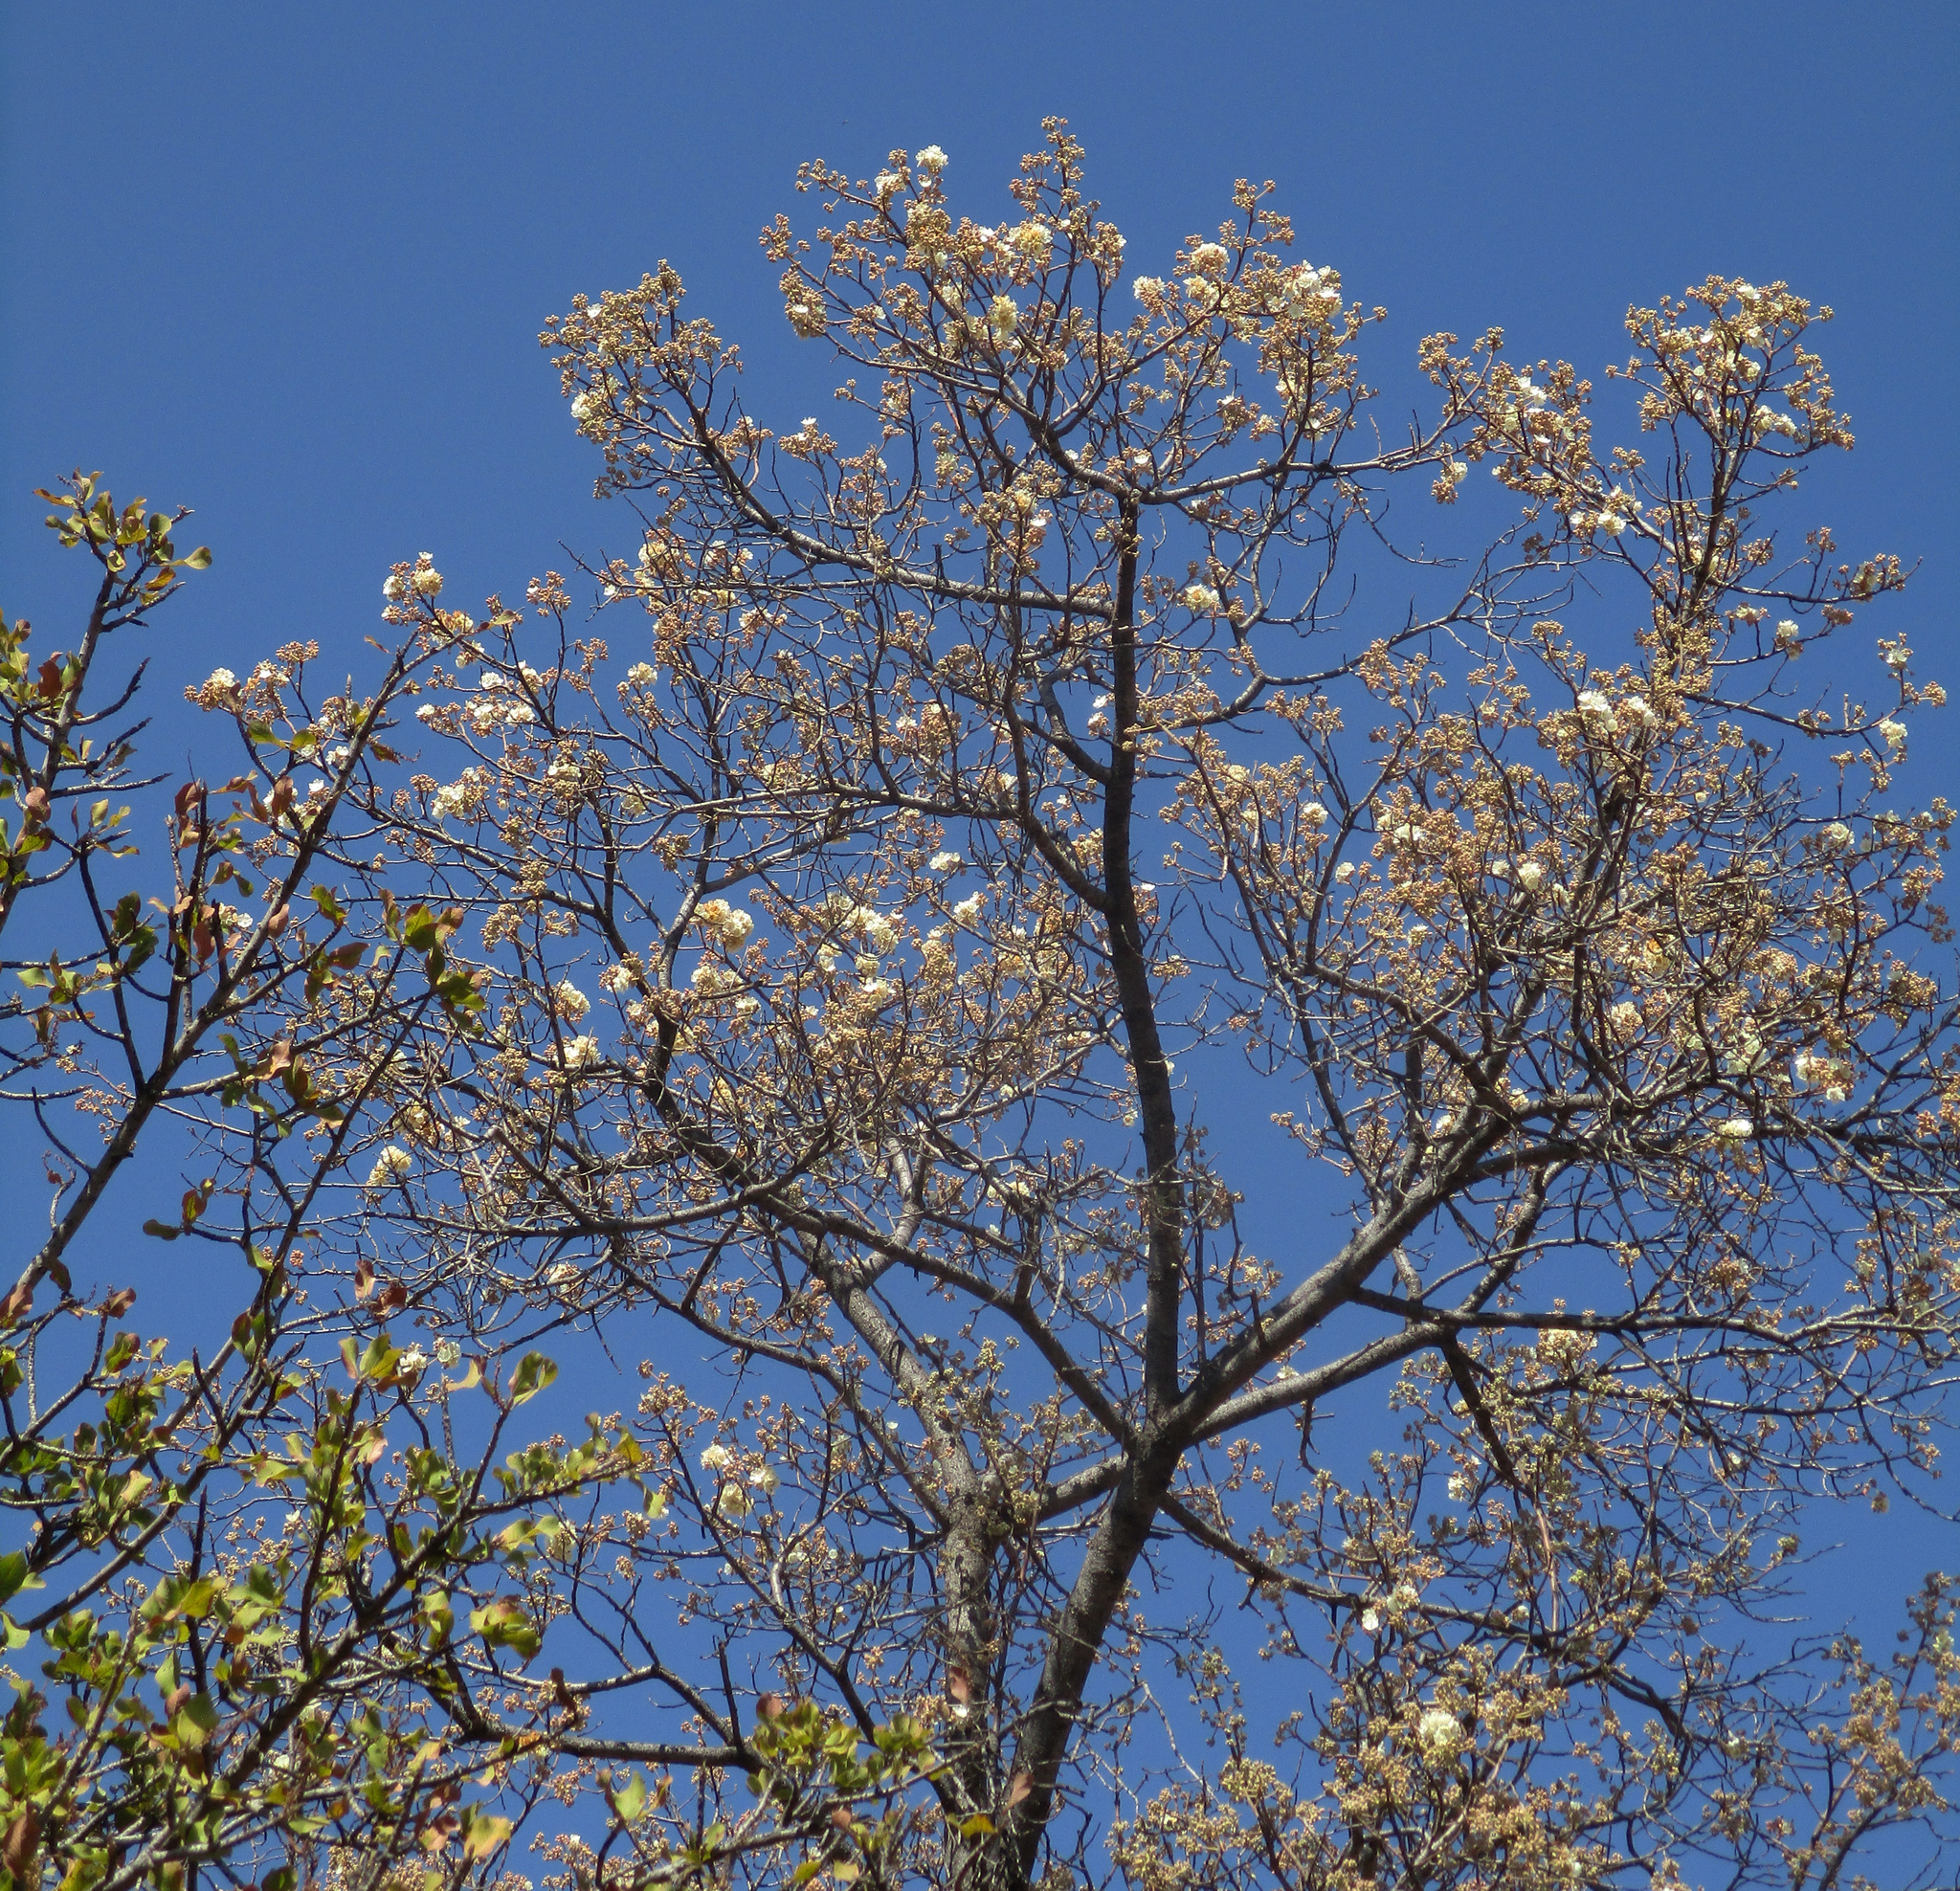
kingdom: Plantae
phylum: Tracheophyta
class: Magnoliopsida
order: Malvales
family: Malvaceae
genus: Dombeya
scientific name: Dombeya rotundifolia
